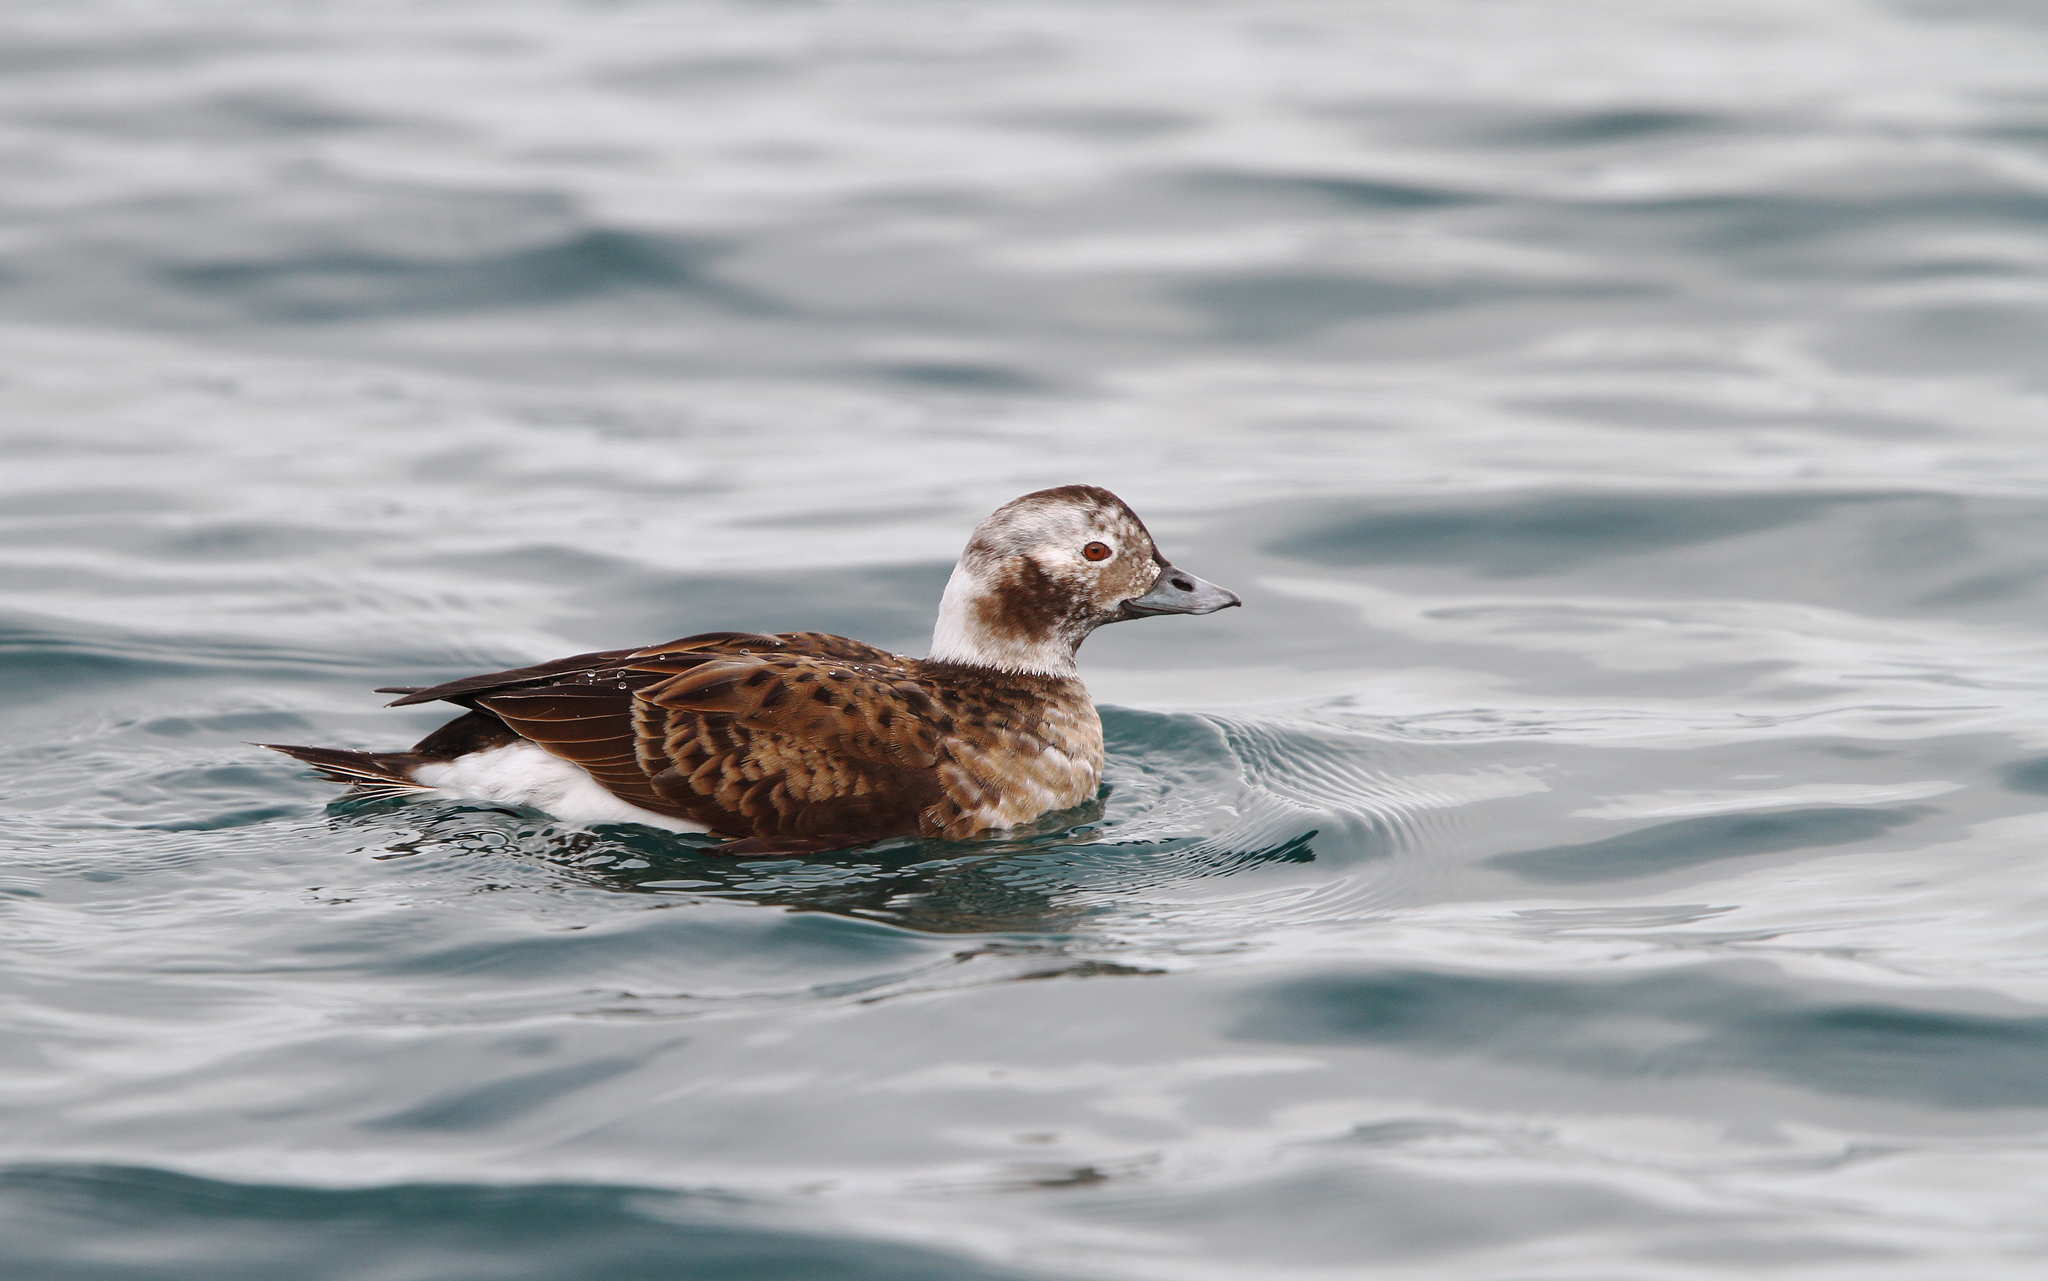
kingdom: Animalia
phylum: Chordata
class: Aves
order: Anseriformes
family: Anatidae
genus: Clangula
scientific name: Clangula hyemalis
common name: Long-tailed duck
